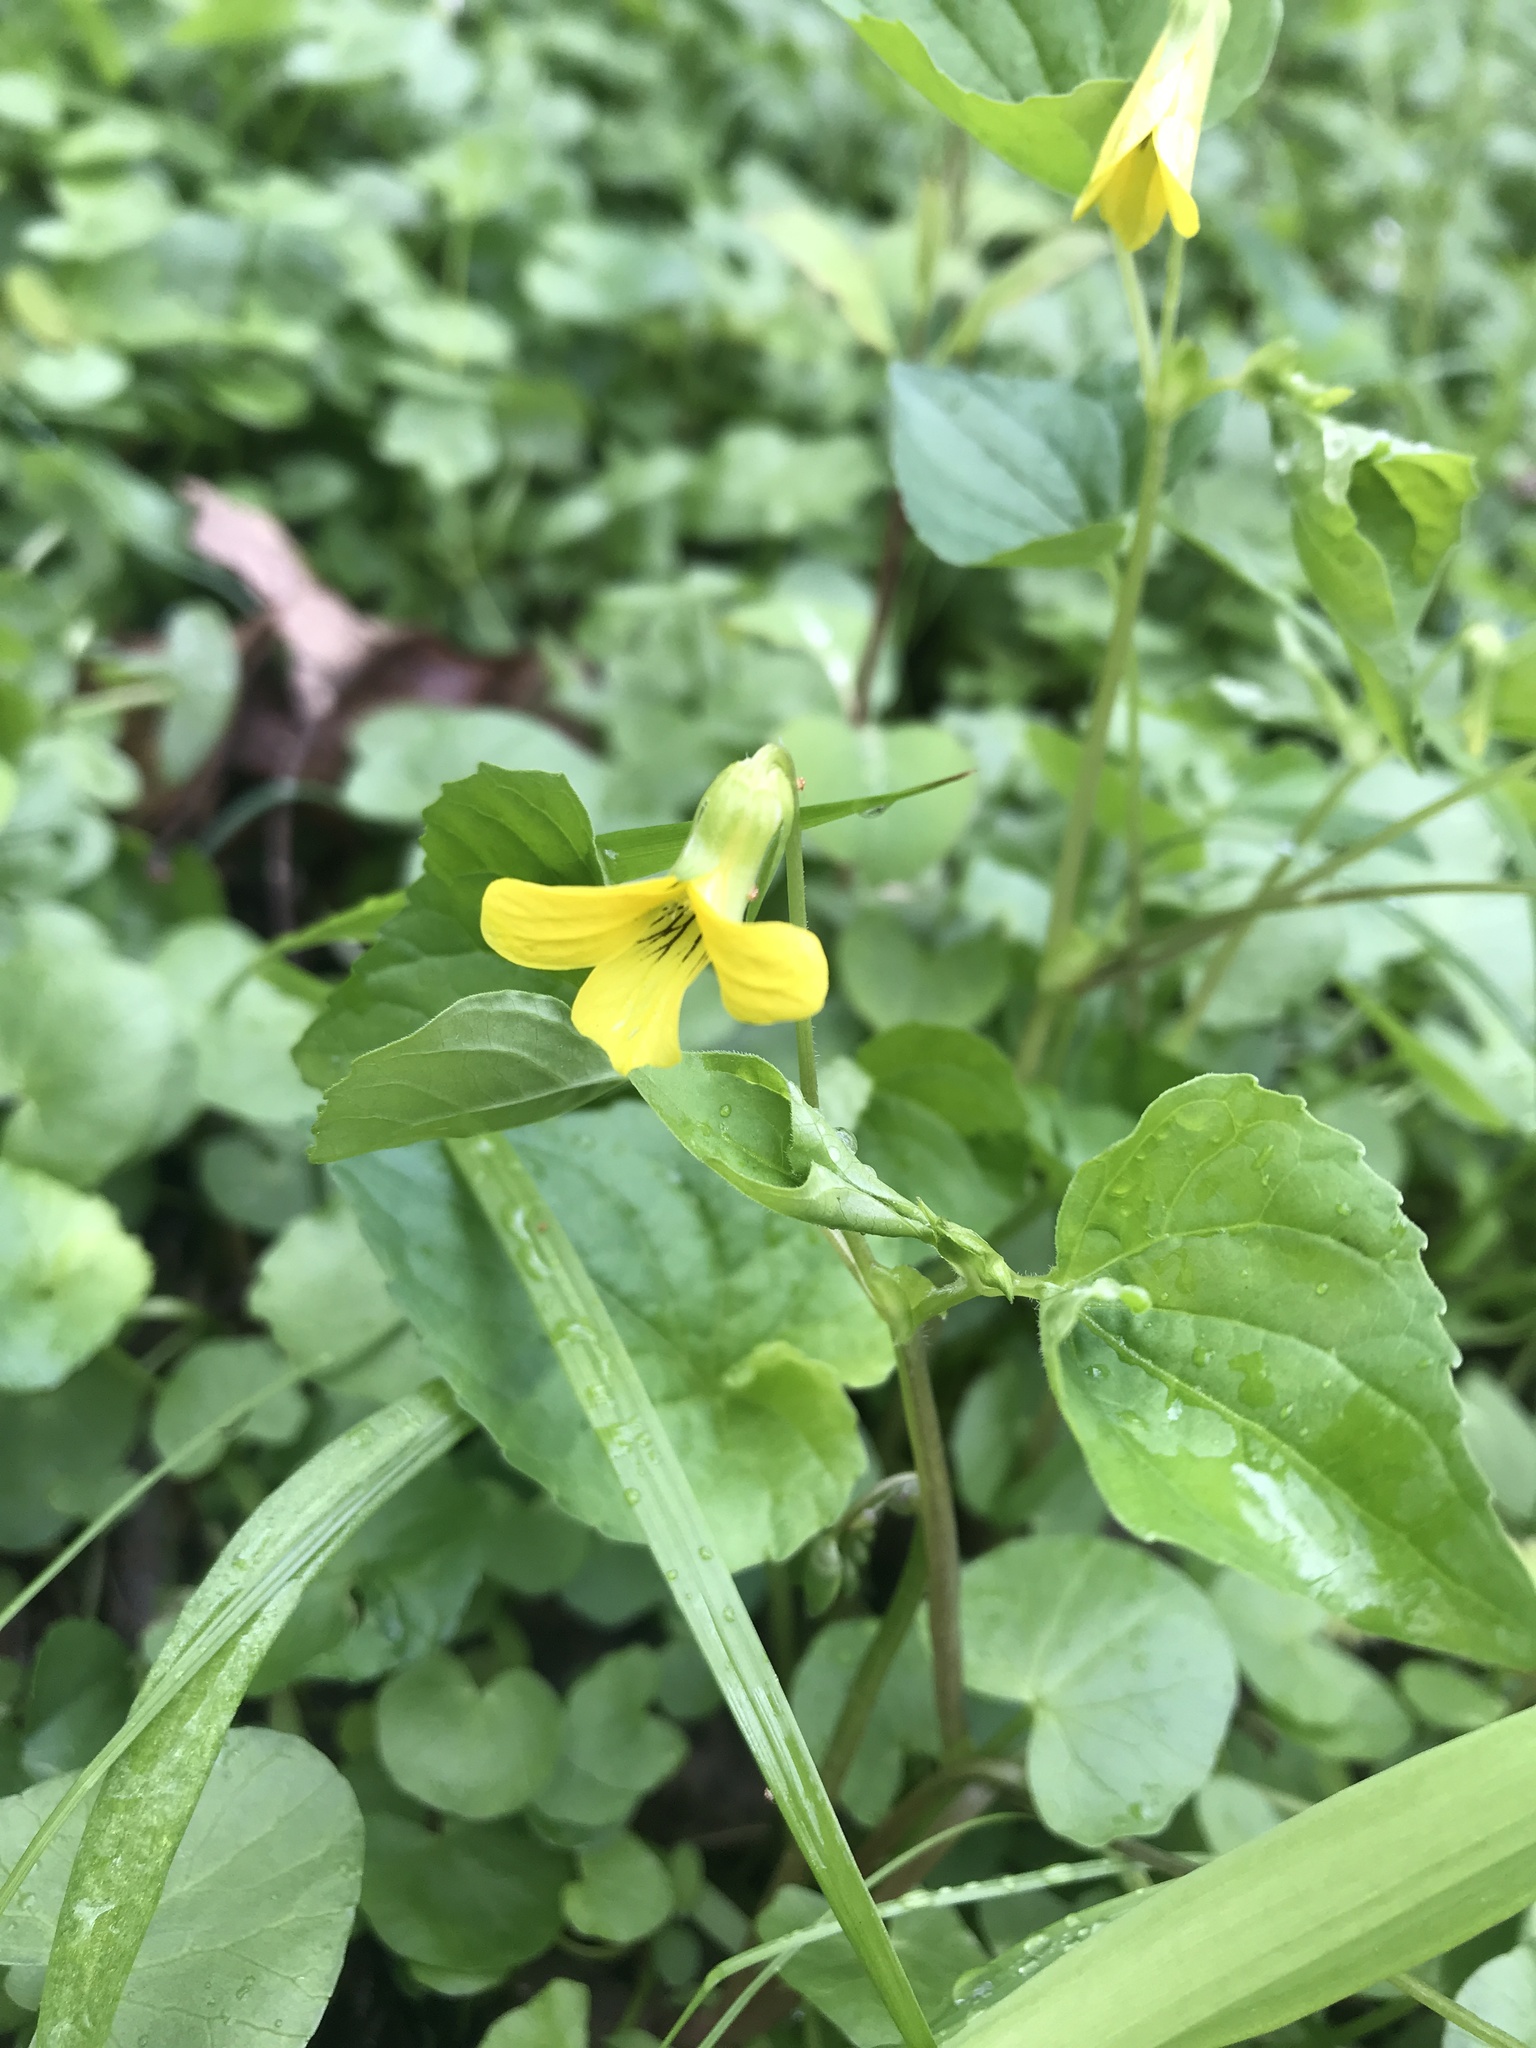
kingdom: Plantae
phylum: Tracheophyta
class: Magnoliopsida
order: Malpighiales
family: Violaceae
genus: Viola
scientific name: Viola eriocarpa
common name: Smooth yellow violet
